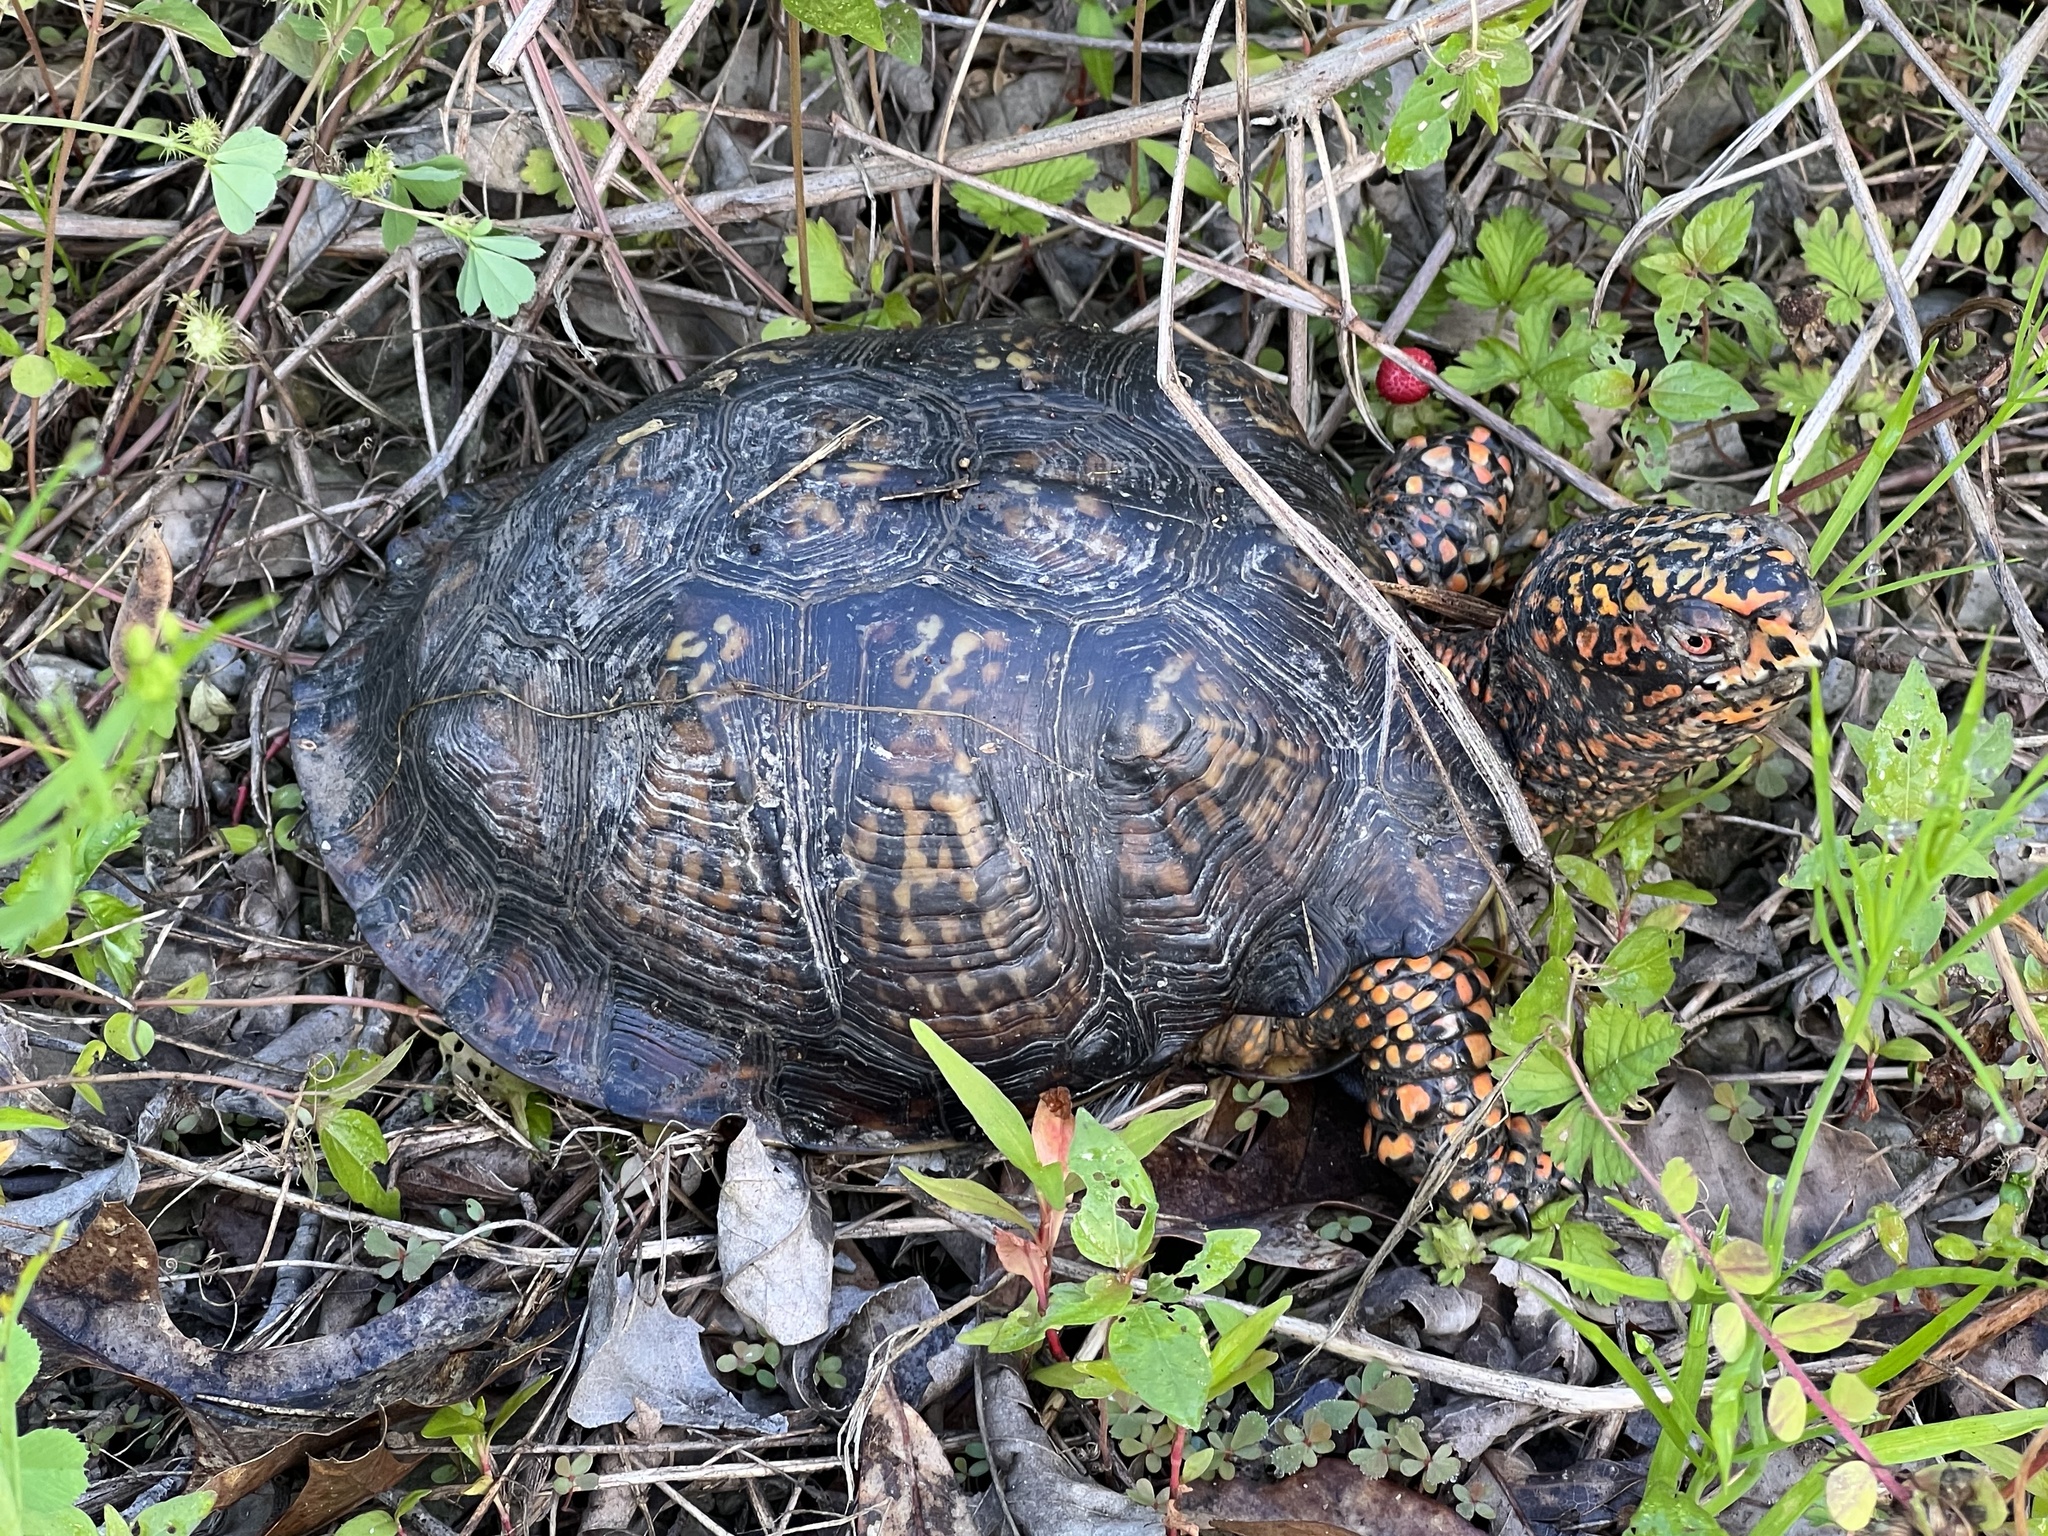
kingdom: Animalia
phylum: Chordata
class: Testudines
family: Emydidae
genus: Terrapene
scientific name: Terrapene carolina
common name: Common box turtle
